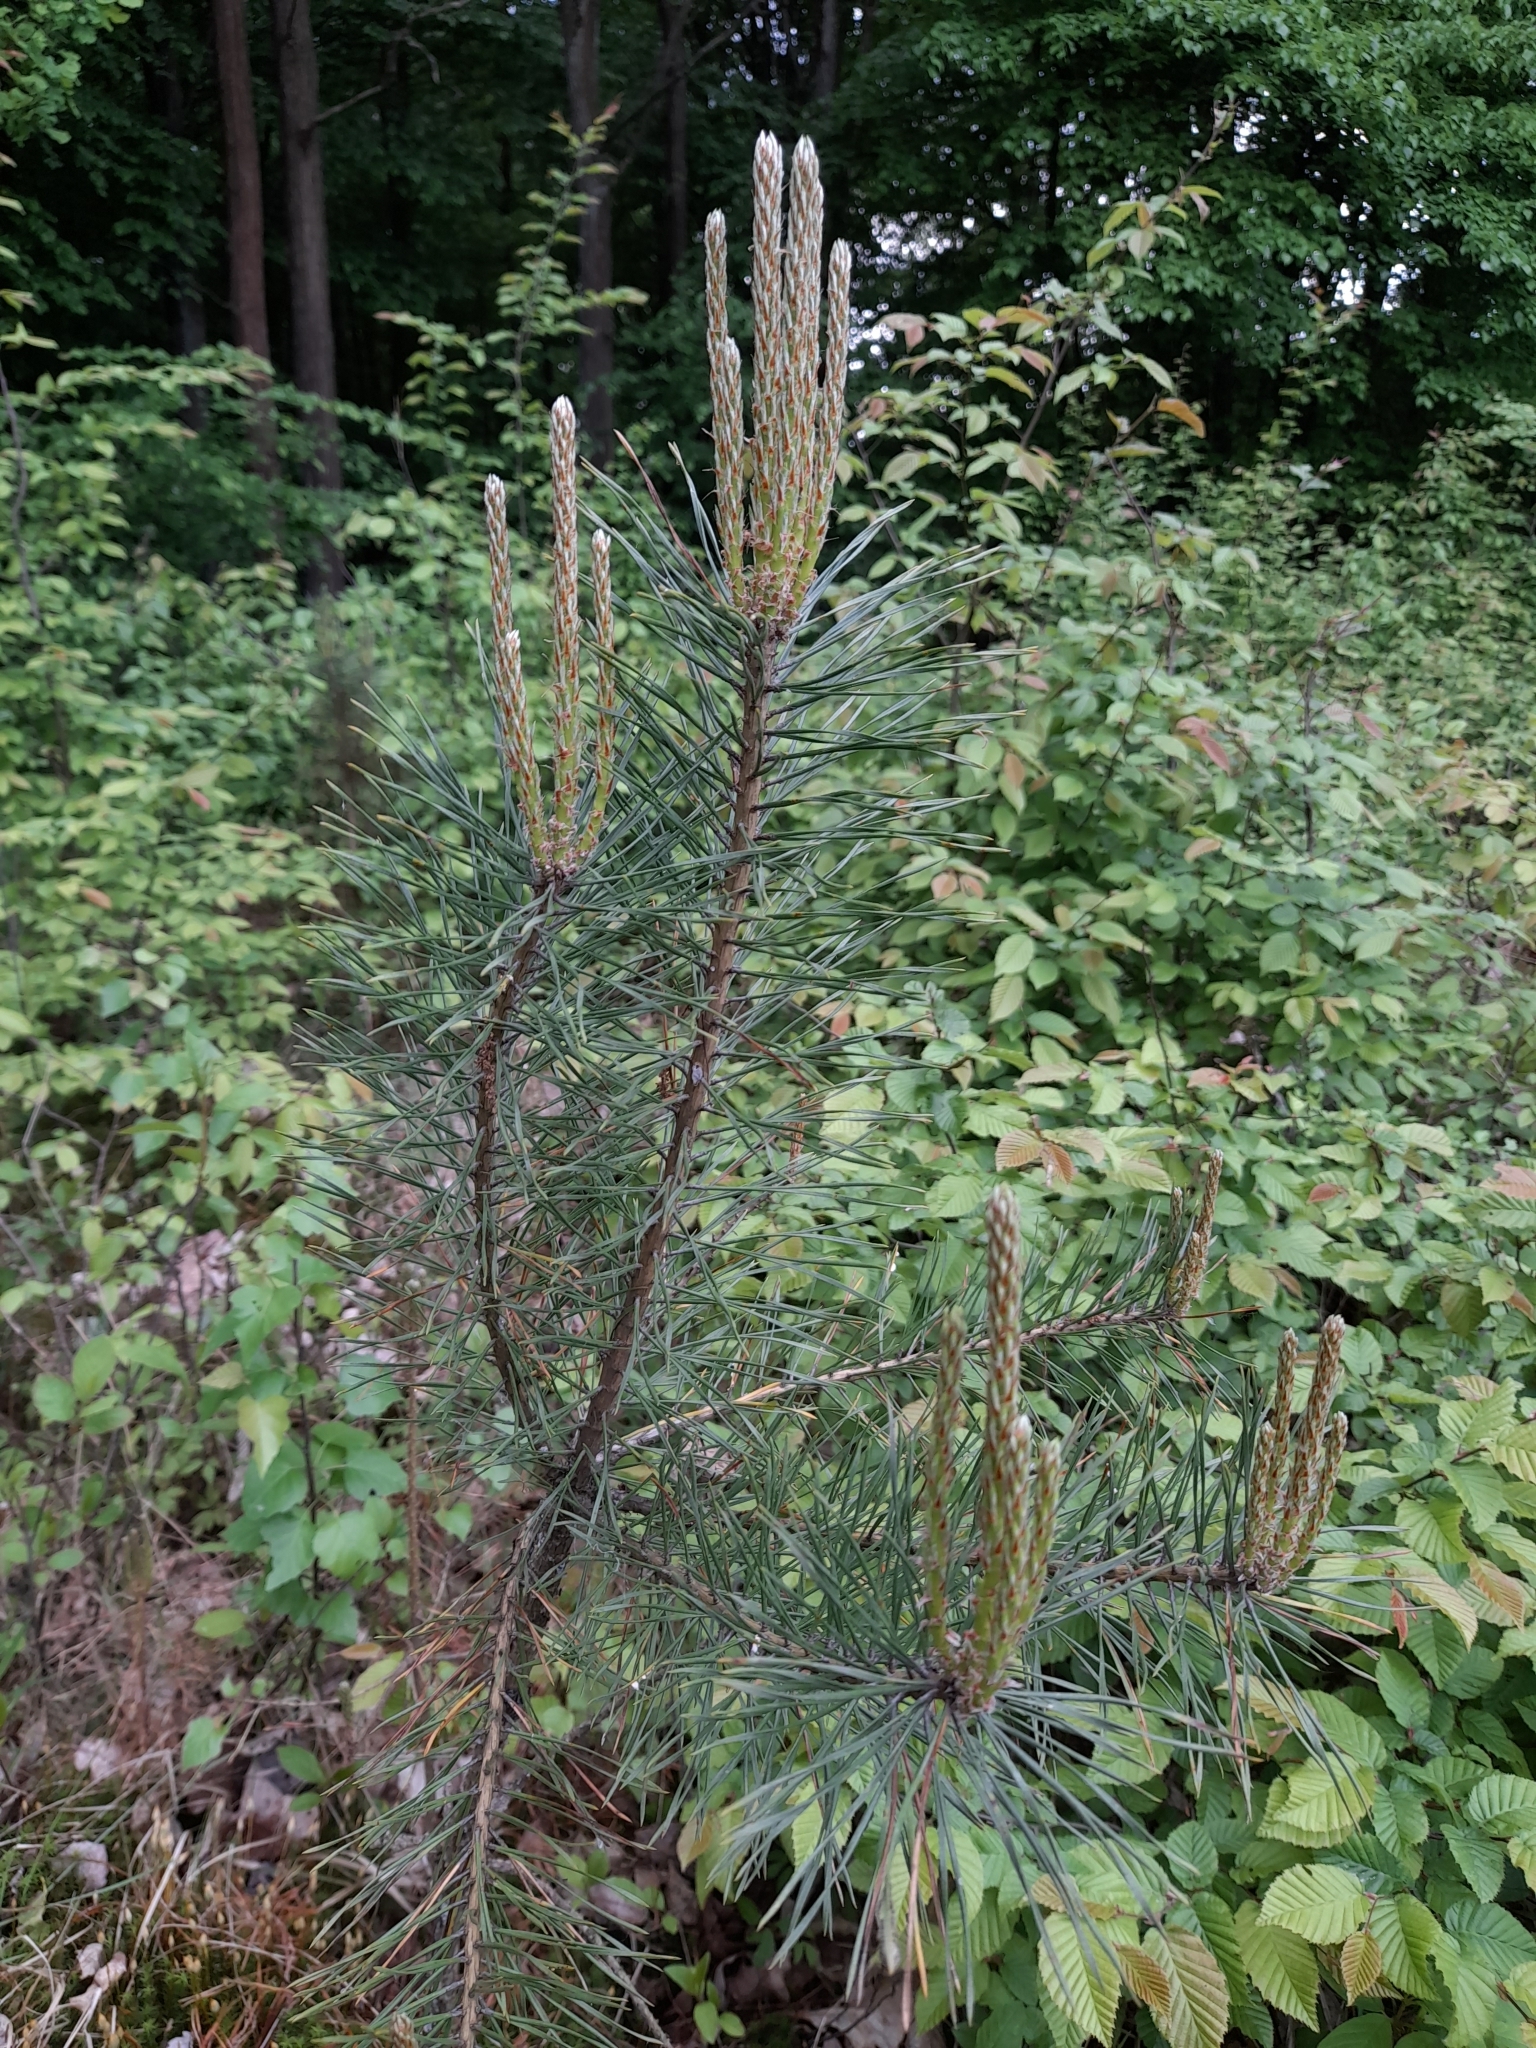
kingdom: Plantae
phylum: Tracheophyta
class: Pinopsida
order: Pinales
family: Pinaceae
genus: Pinus
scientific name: Pinus sylvestris
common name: Scots pine
